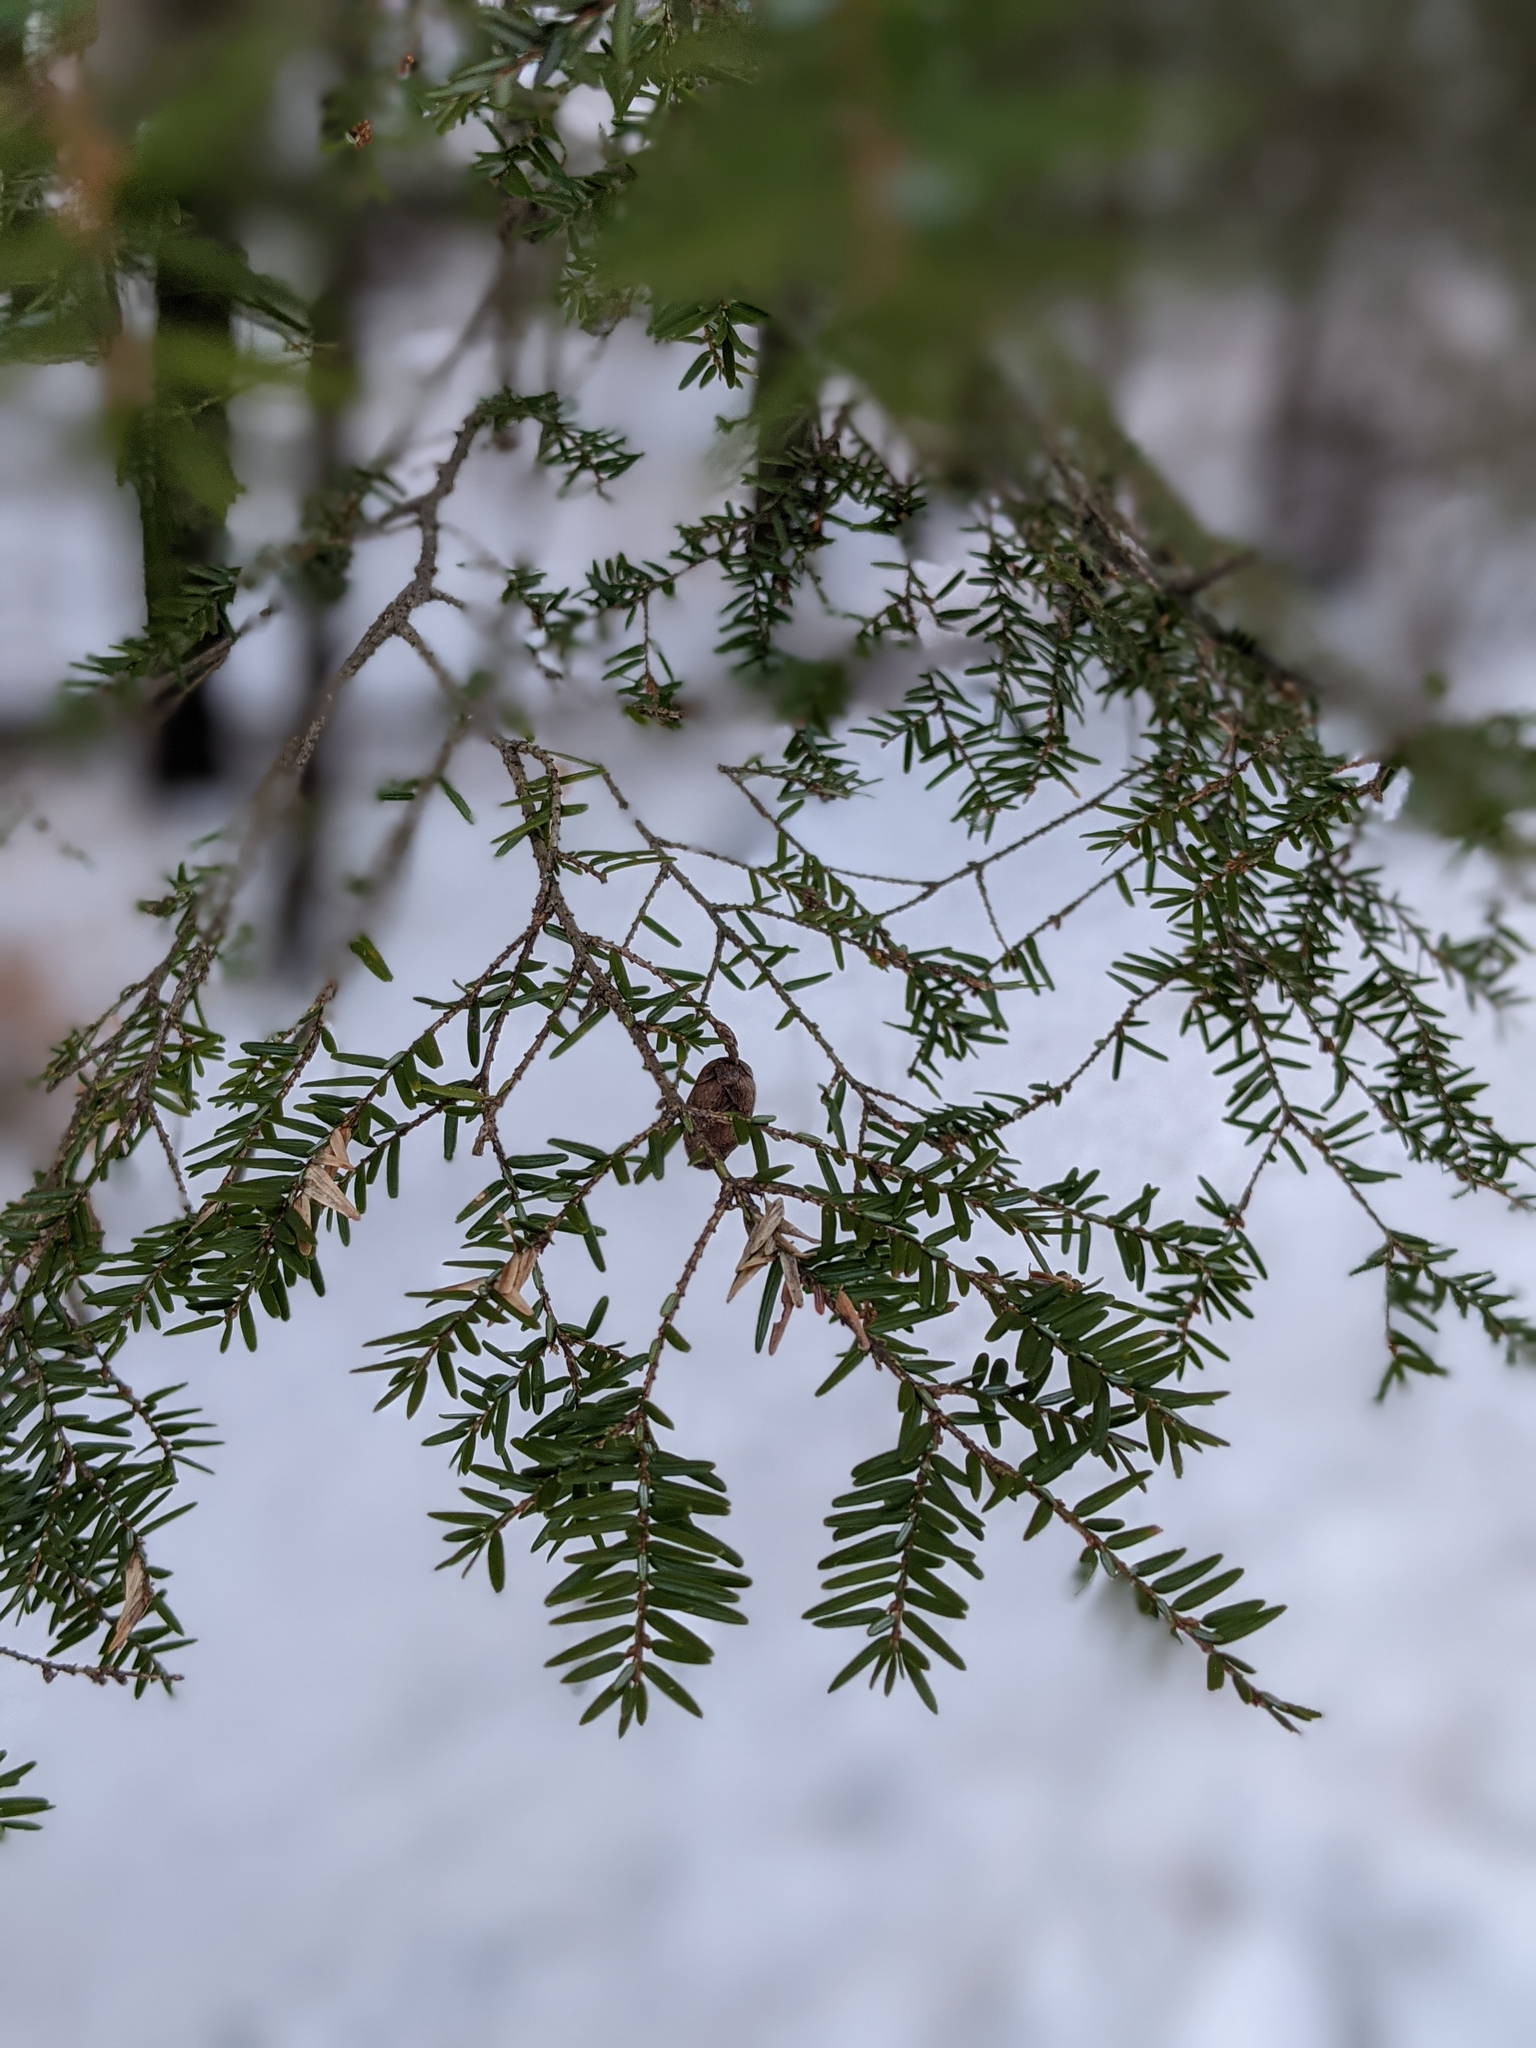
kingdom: Plantae
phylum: Tracheophyta
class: Pinopsida
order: Pinales
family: Pinaceae
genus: Tsuga
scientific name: Tsuga canadensis
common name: Eastern hemlock
